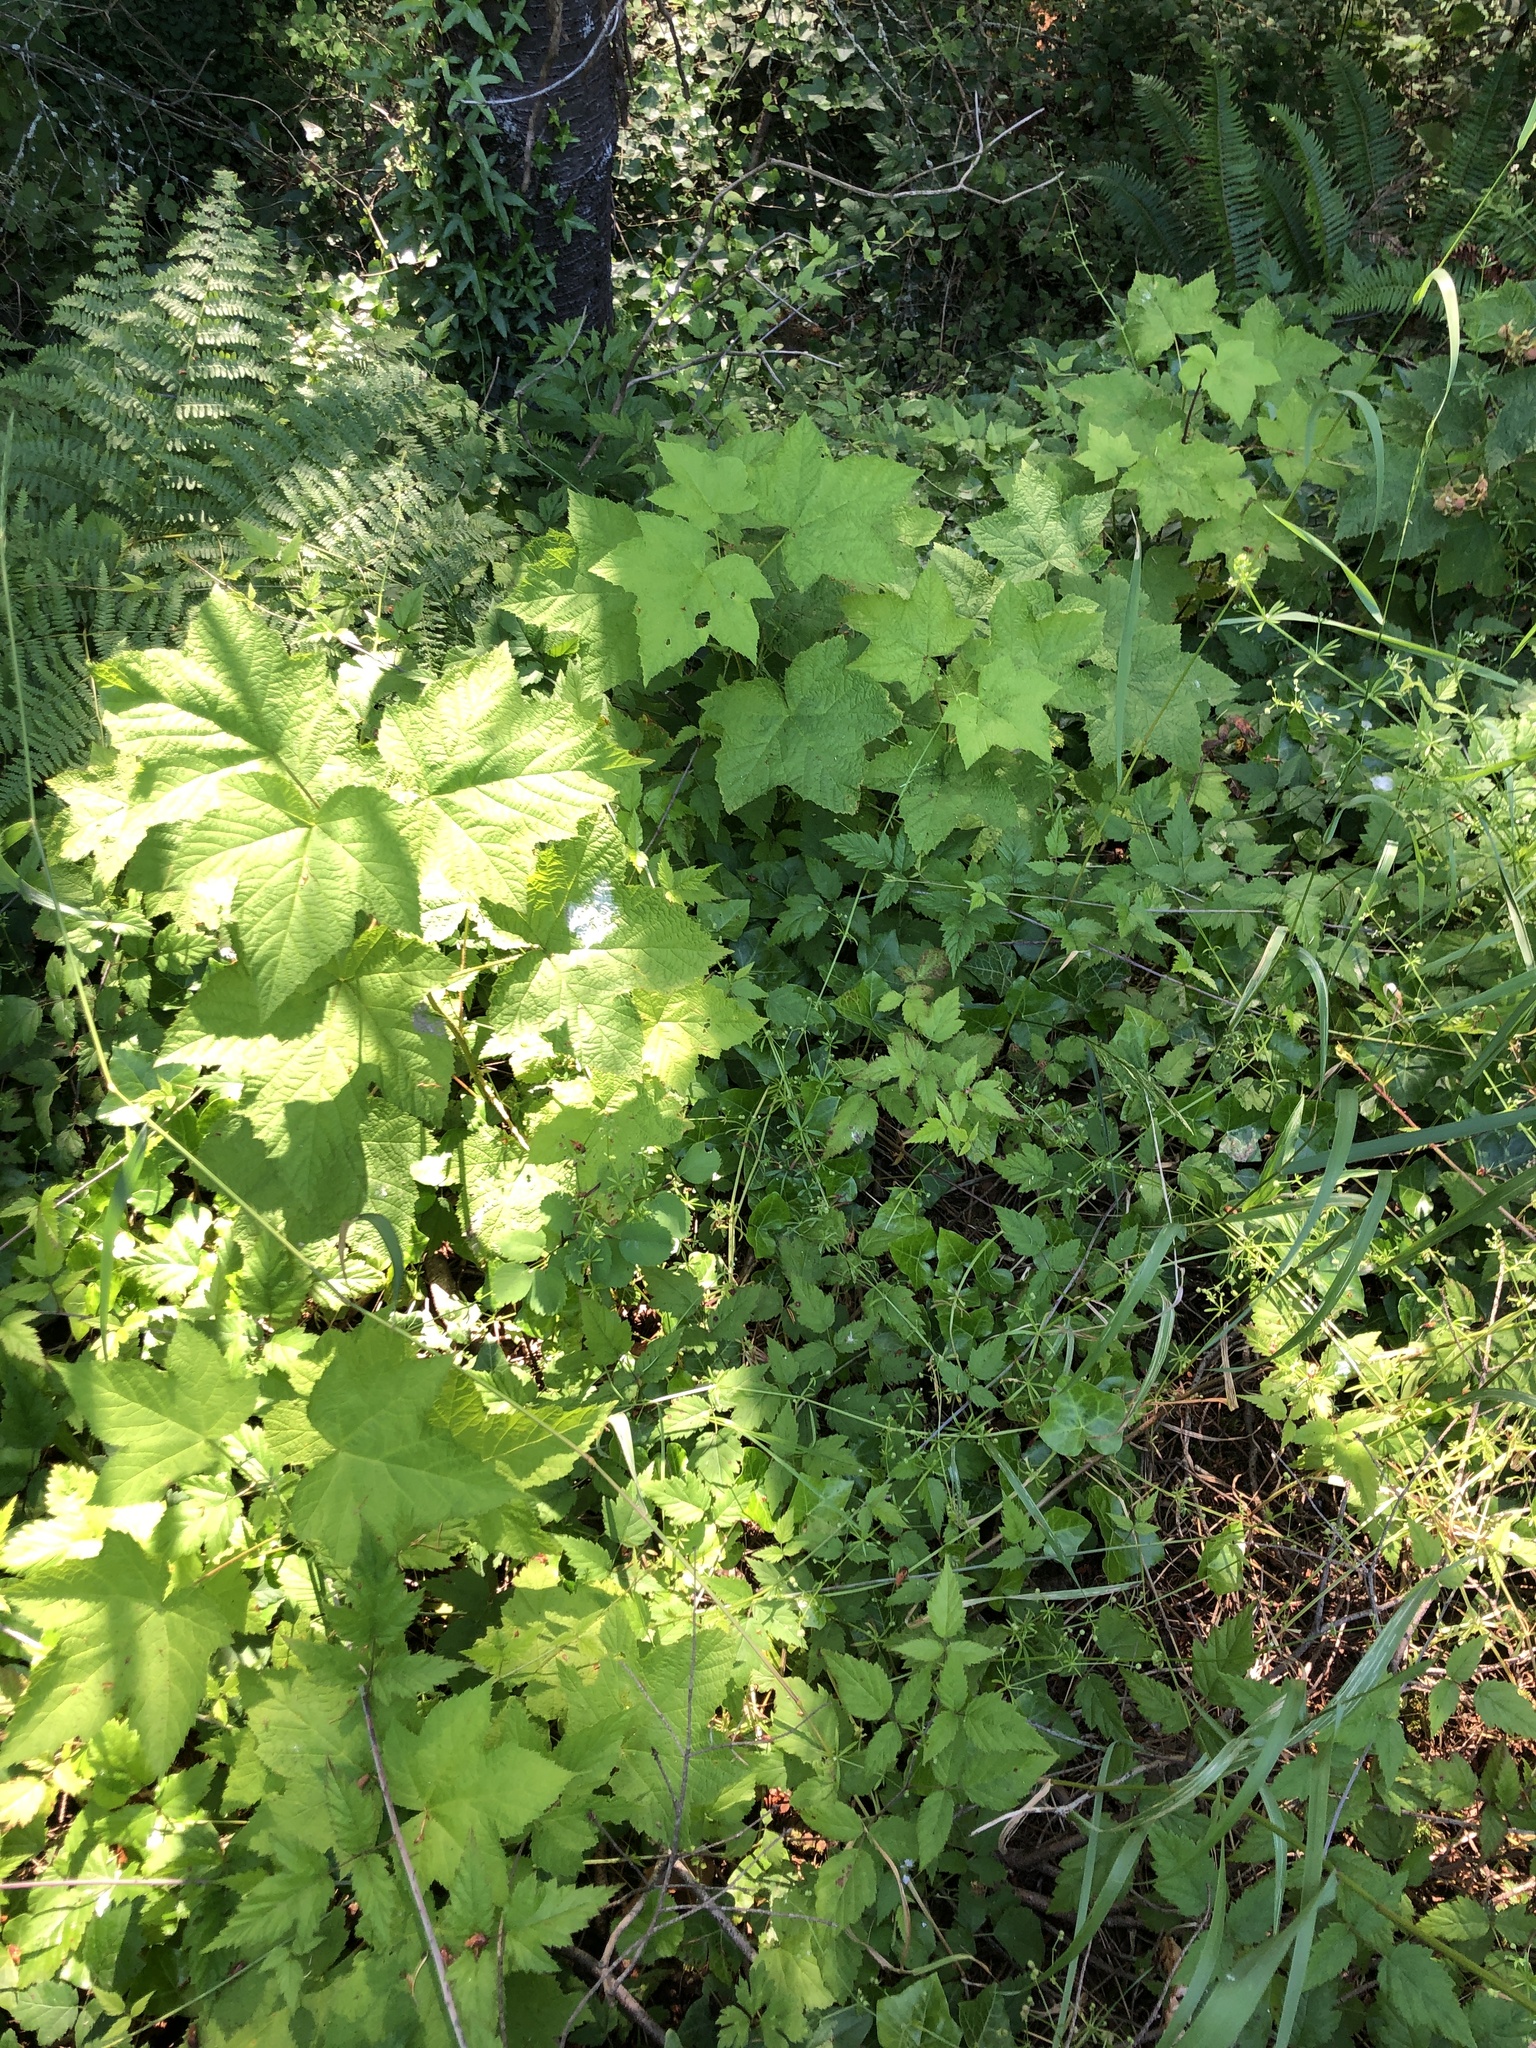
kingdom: Plantae
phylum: Tracheophyta
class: Magnoliopsida
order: Rosales
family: Rosaceae
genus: Rubus
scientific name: Rubus parviflorus
